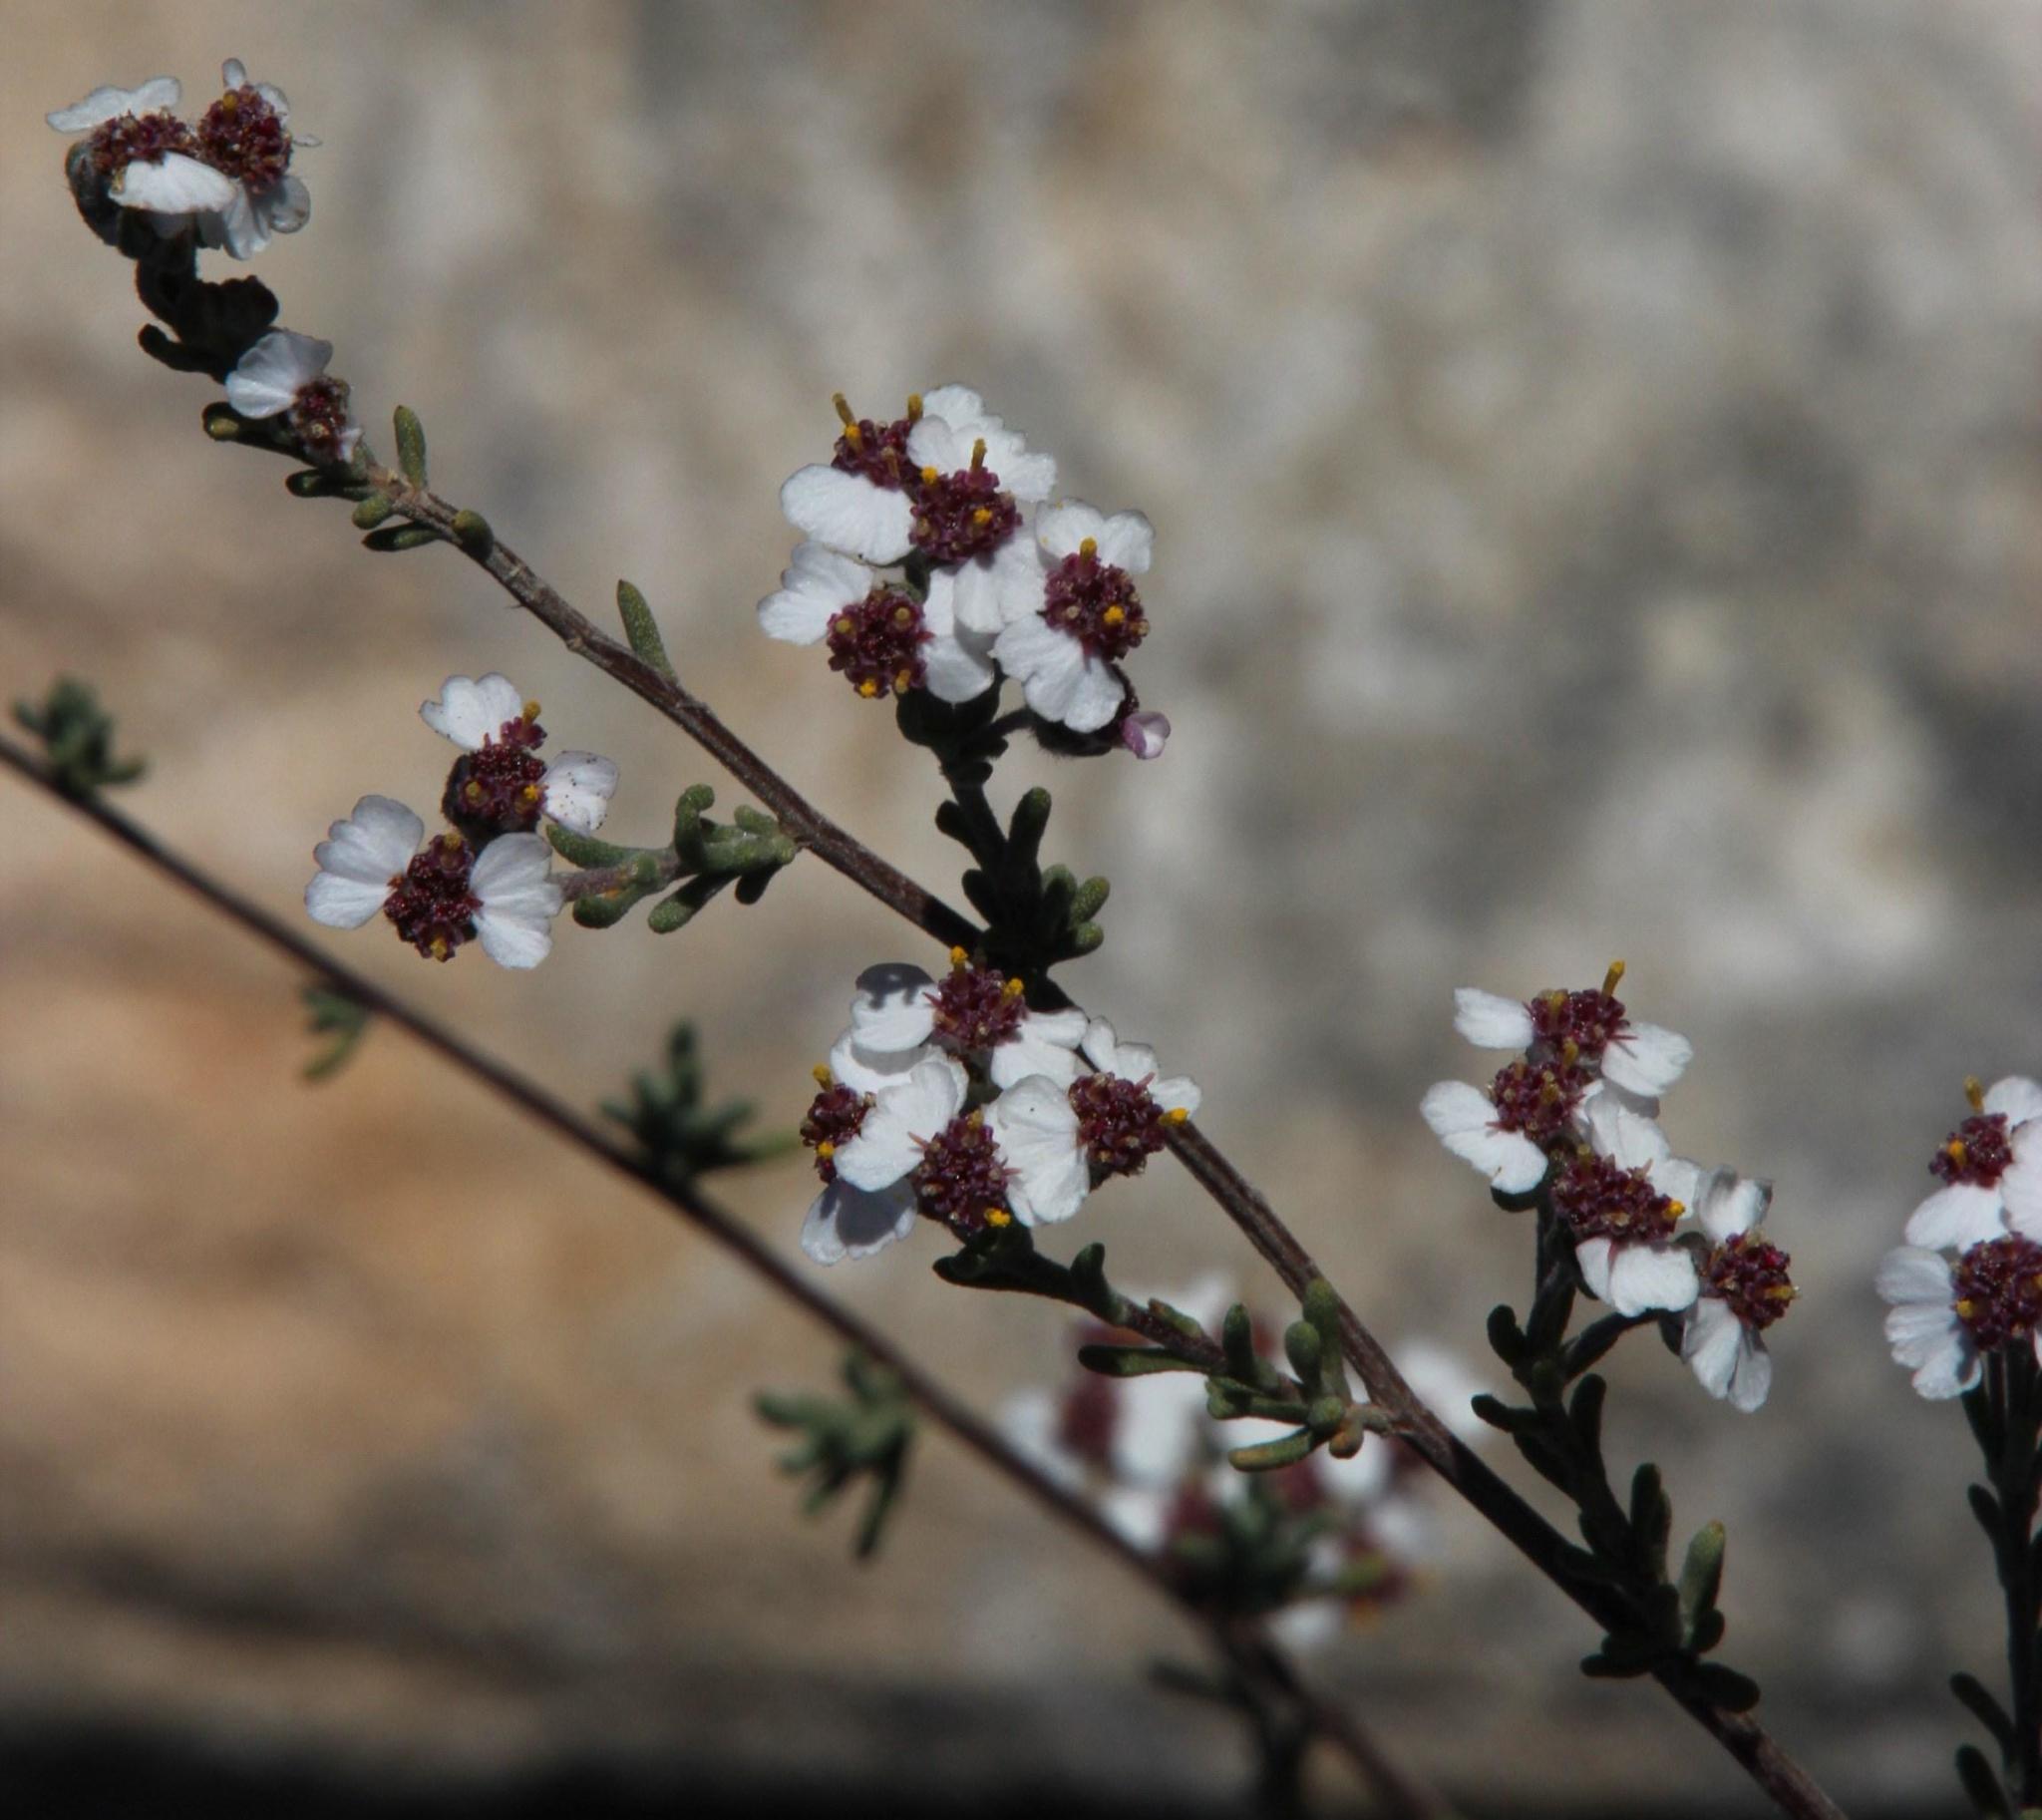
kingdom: Plantae
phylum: Tracheophyta
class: Magnoliopsida
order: Asterales
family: Asteraceae
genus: Eriocephalus
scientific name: Eriocephalus africanus
